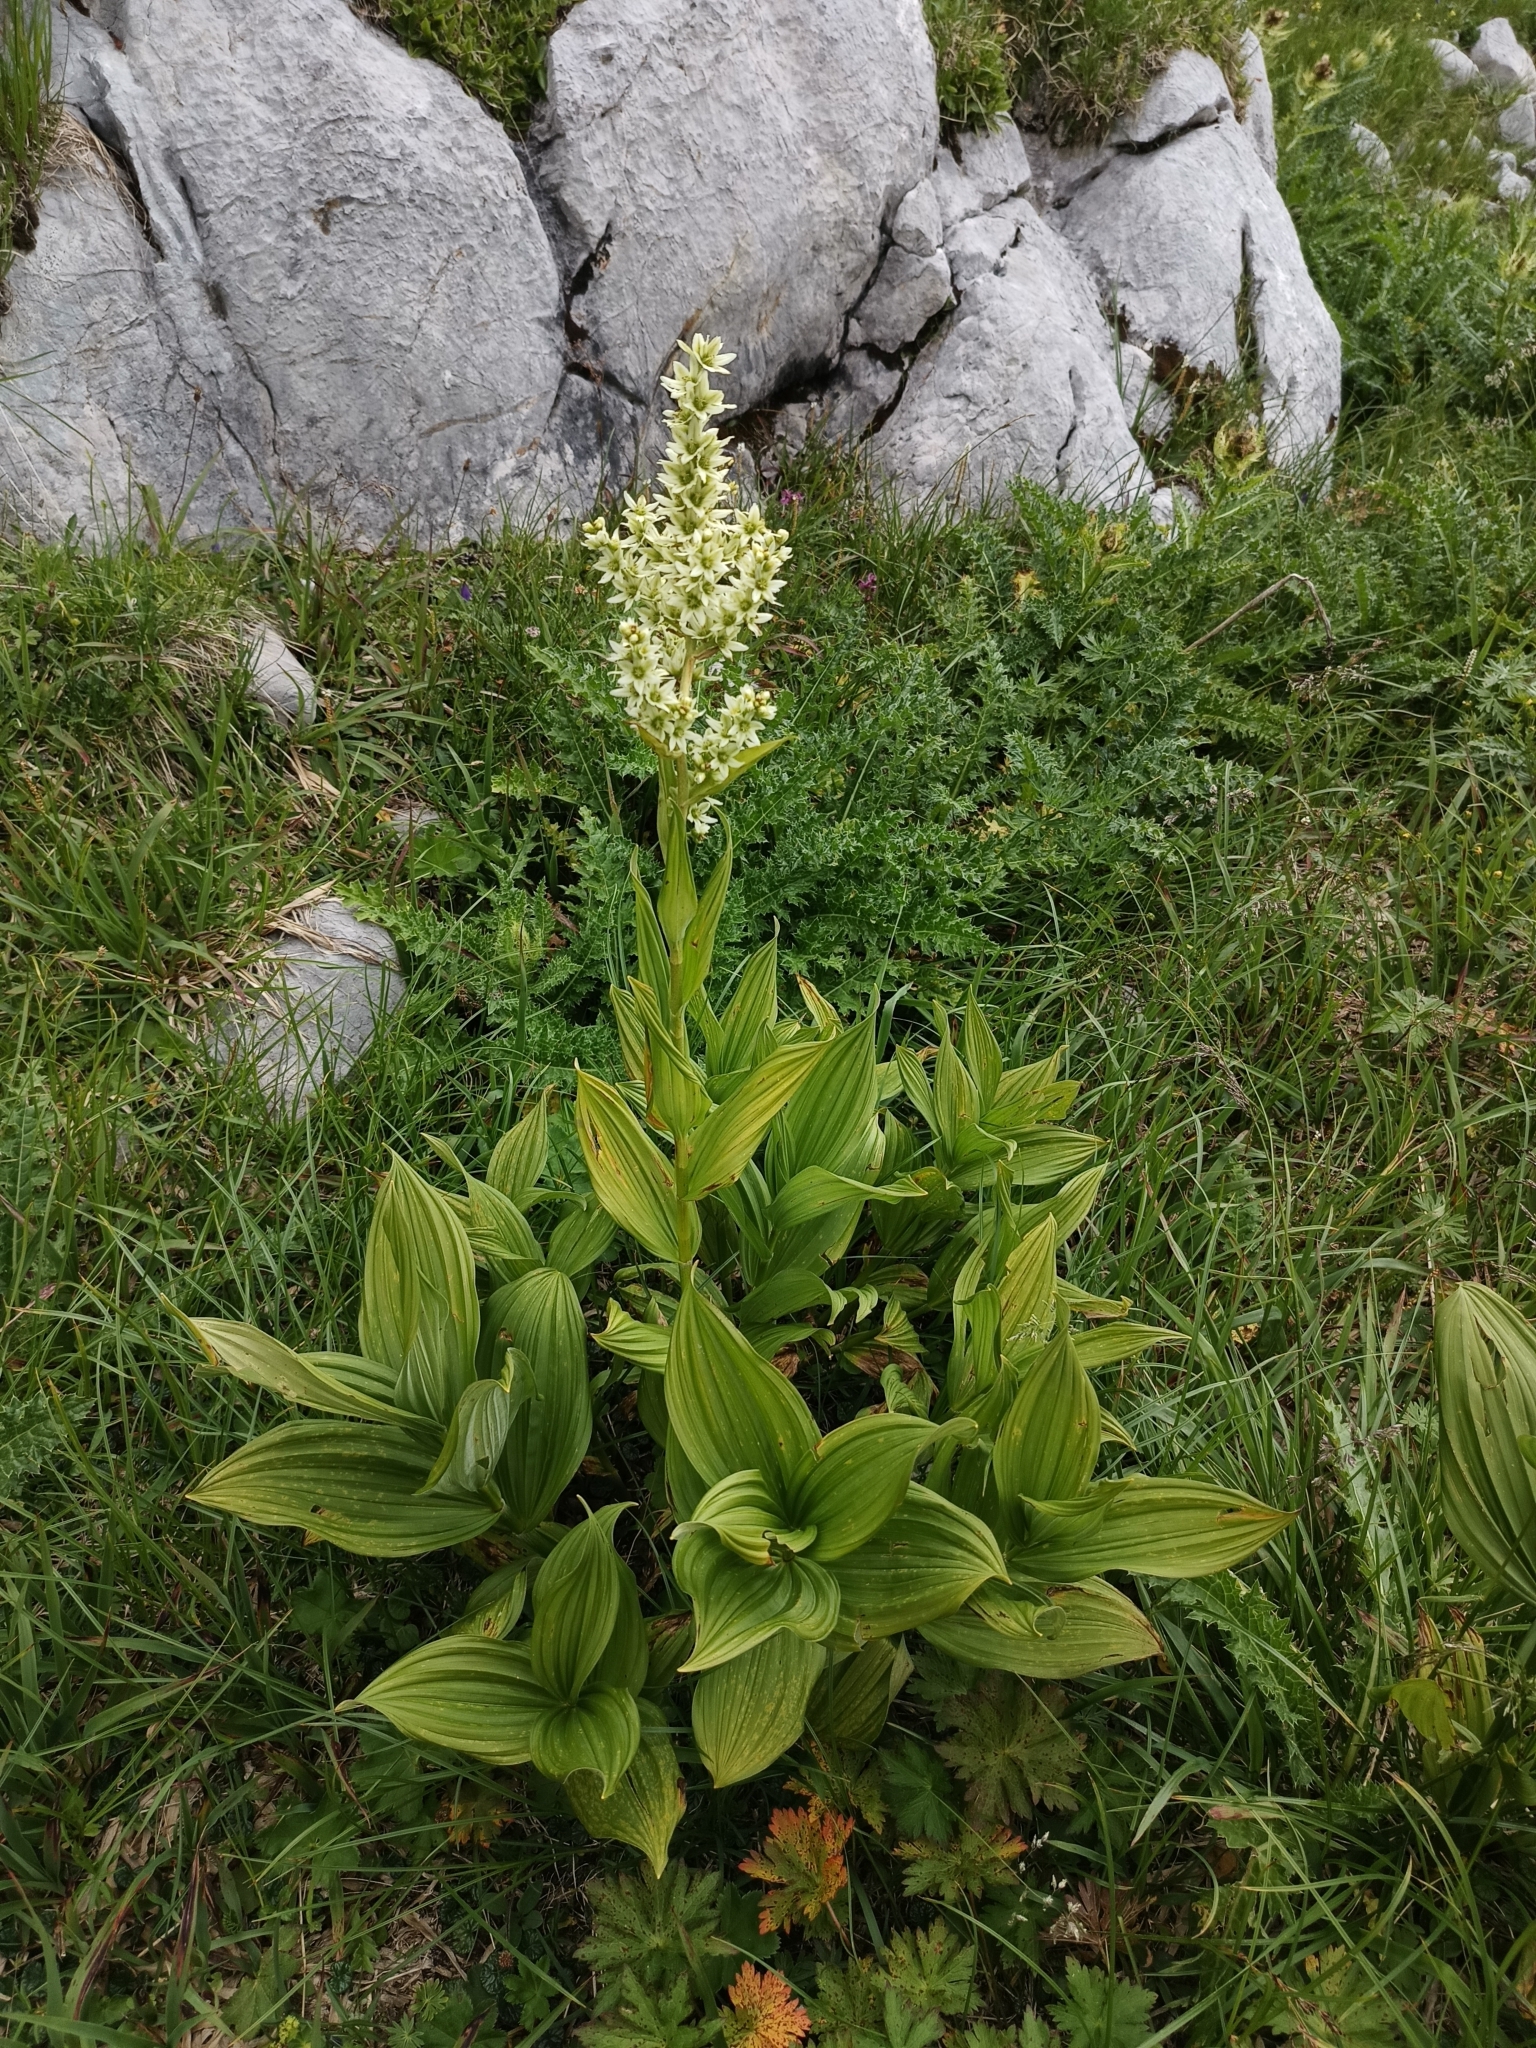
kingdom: Plantae
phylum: Tracheophyta
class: Liliopsida
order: Liliales
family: Melanthiaceae
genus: Veratrum
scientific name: Veratrum lobelianum
